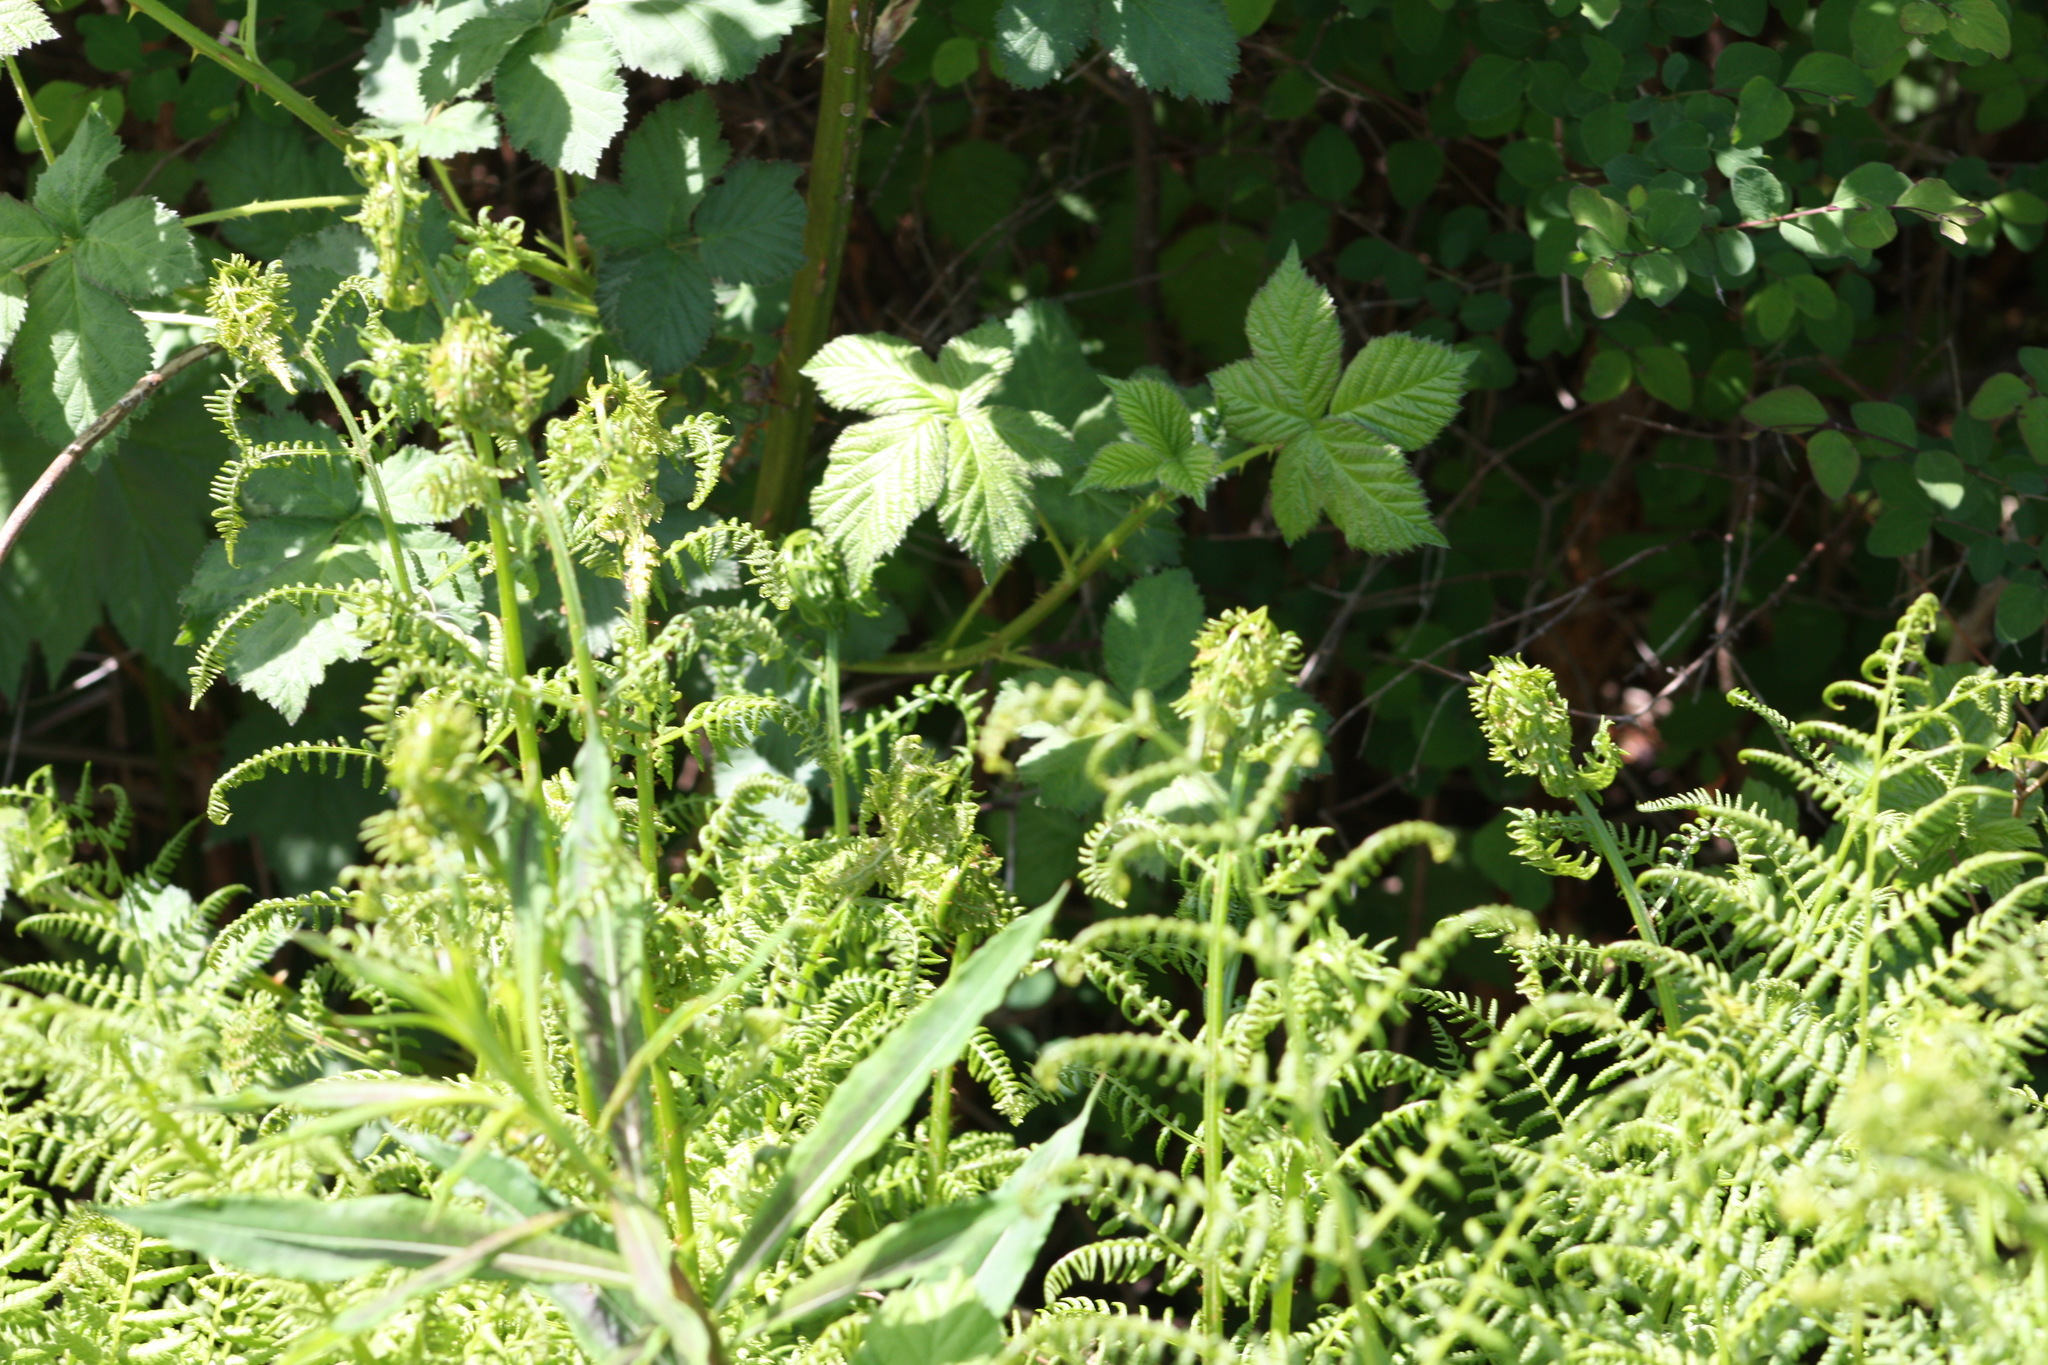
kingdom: Plantae
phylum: Tracheophyta
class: Polypodiopsida
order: Polypodiales
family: Athyriaceae
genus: Athyrium
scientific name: Athyrium filix-femina
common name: Lady fern
